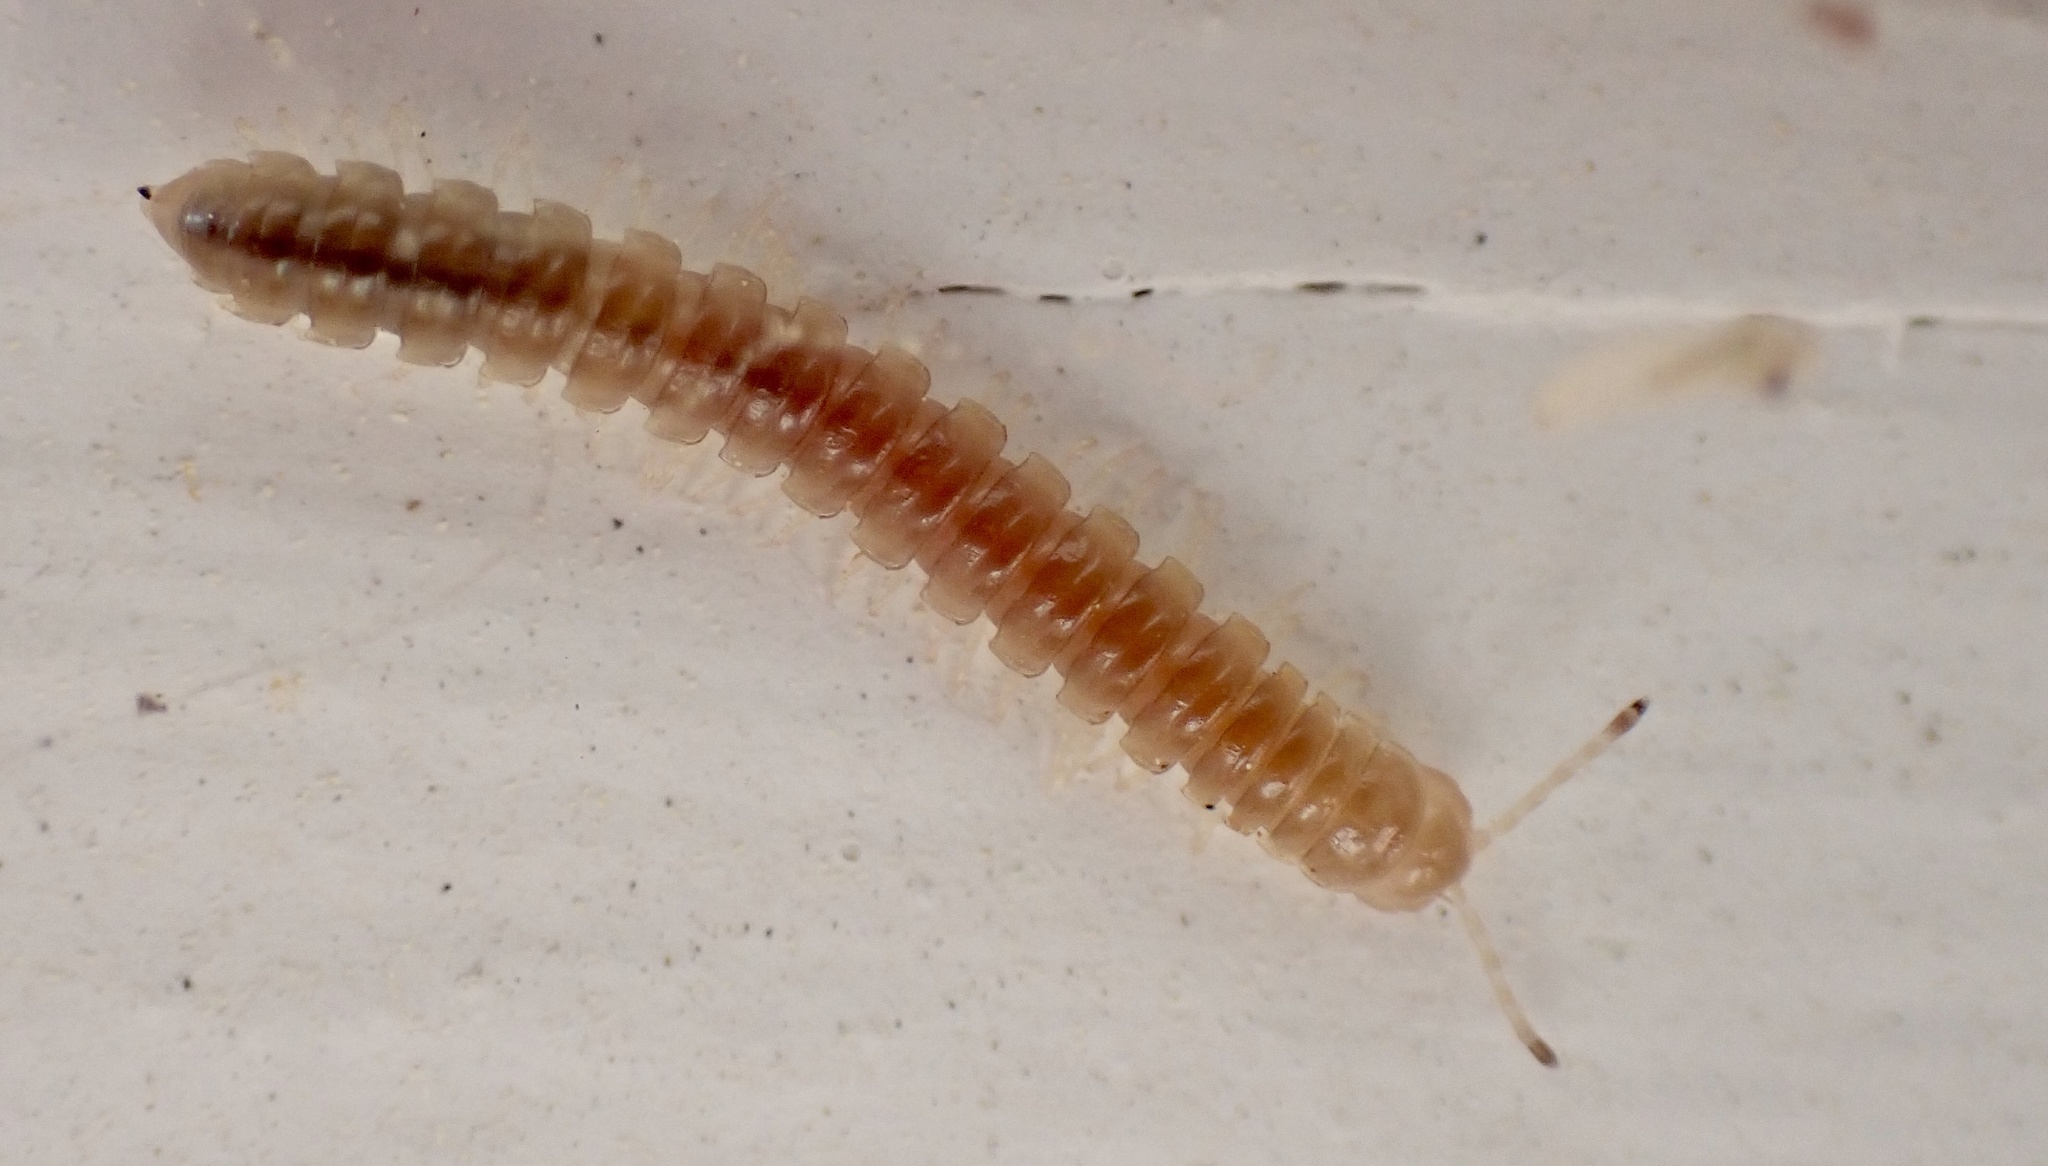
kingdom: Animalia
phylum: Arthropoda
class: Diplopoda
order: Polydesmida
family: Paradoxosomatidae
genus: Oxidus
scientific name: Oxidus gracilis
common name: Greenhouse millipede
